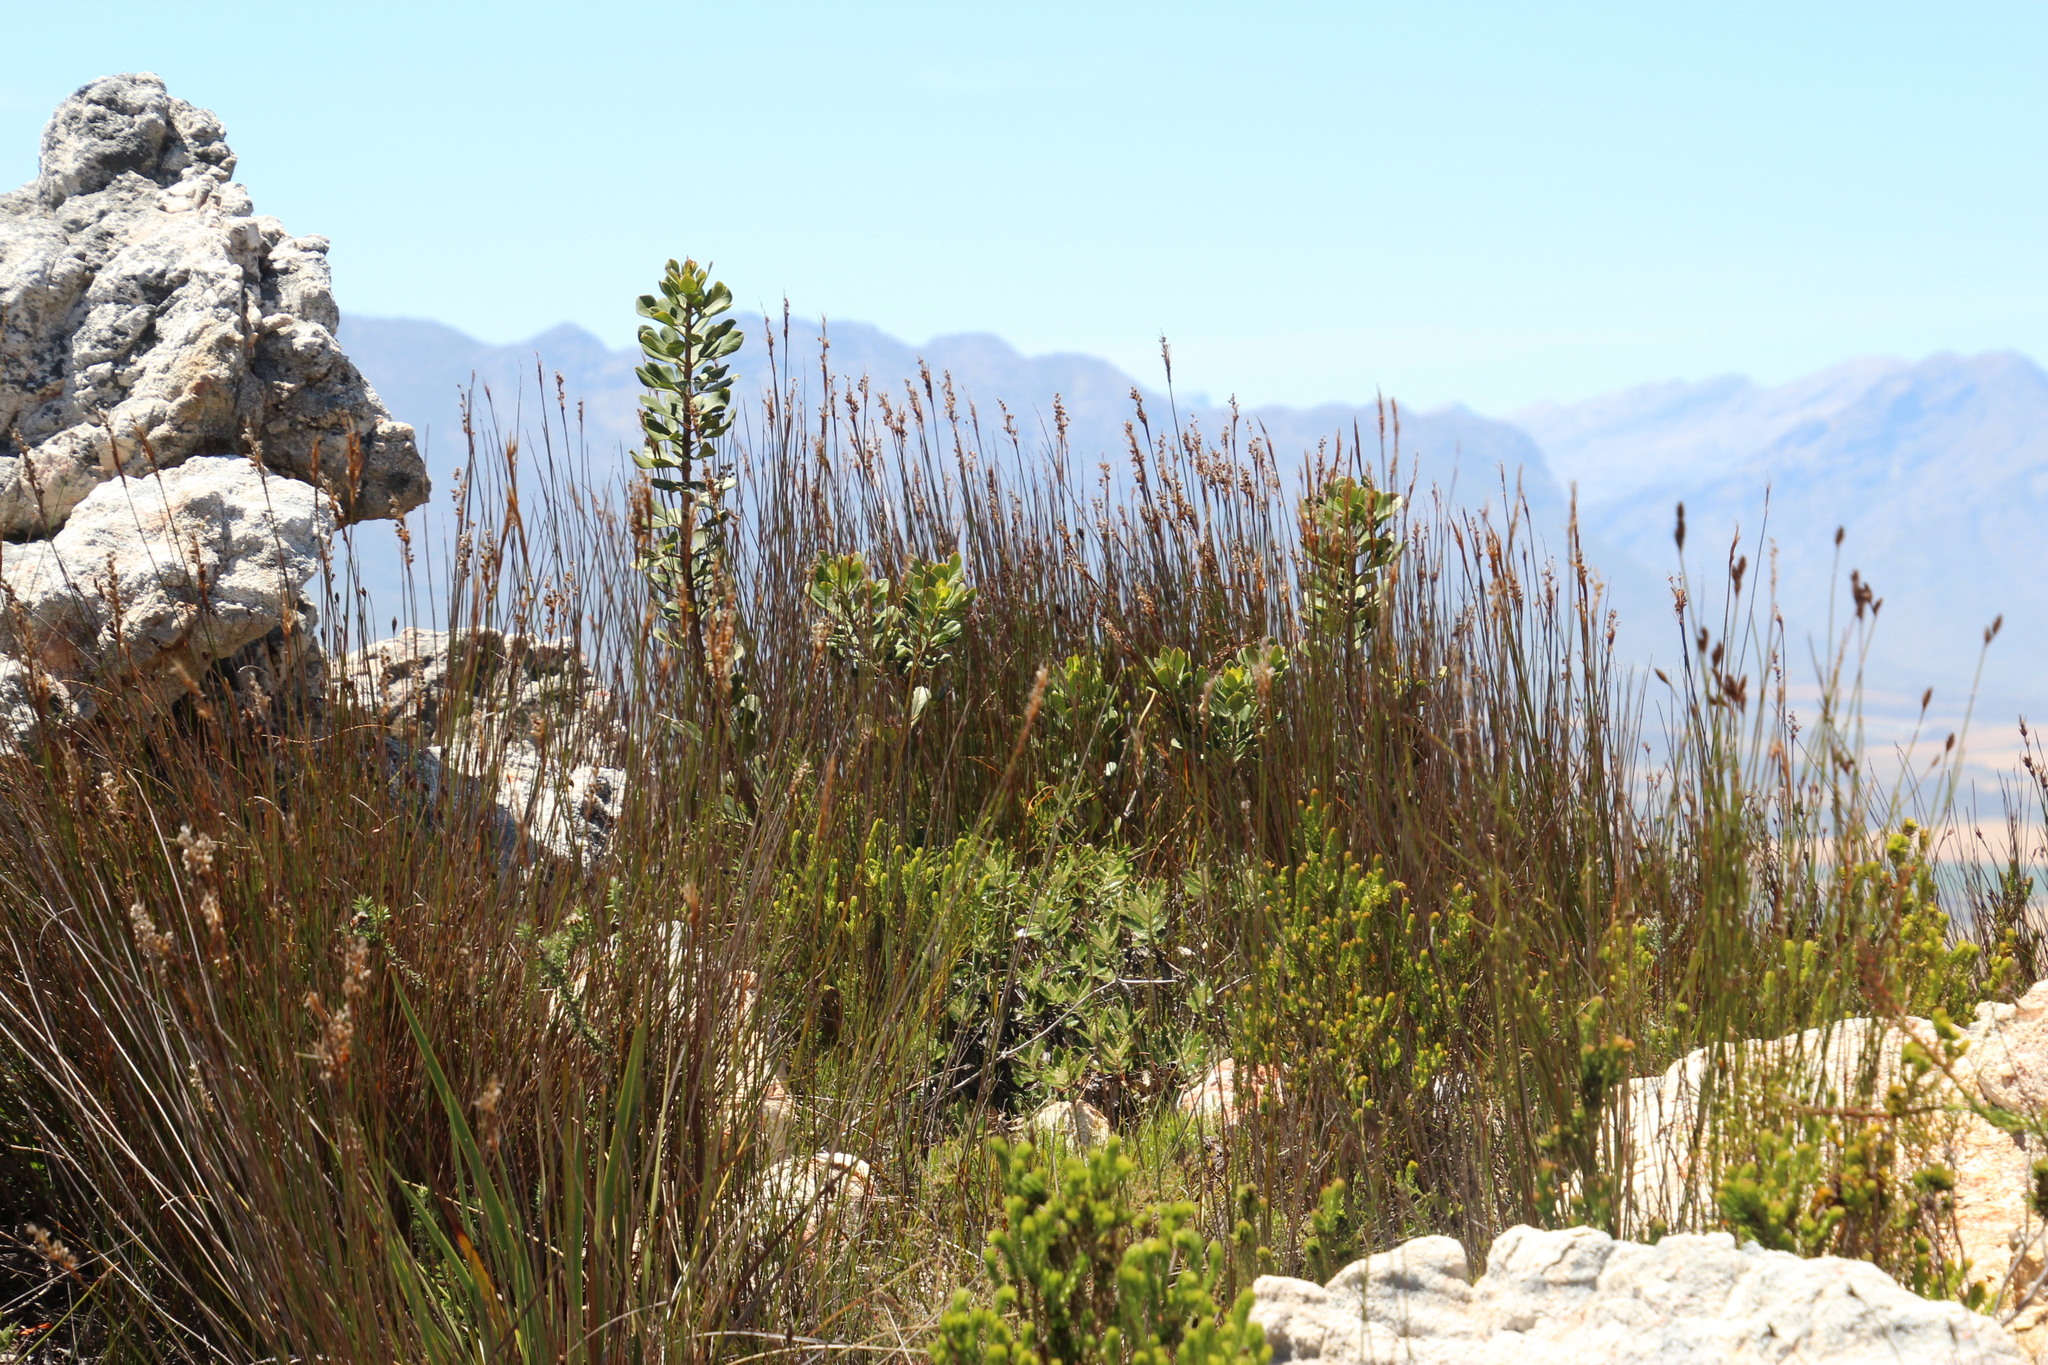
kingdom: Plantae
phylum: Tracheophyta
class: Magnoliopsida
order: Sapindales
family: Anacardiaceae
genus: Searsia
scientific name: Searsia scytophylla
